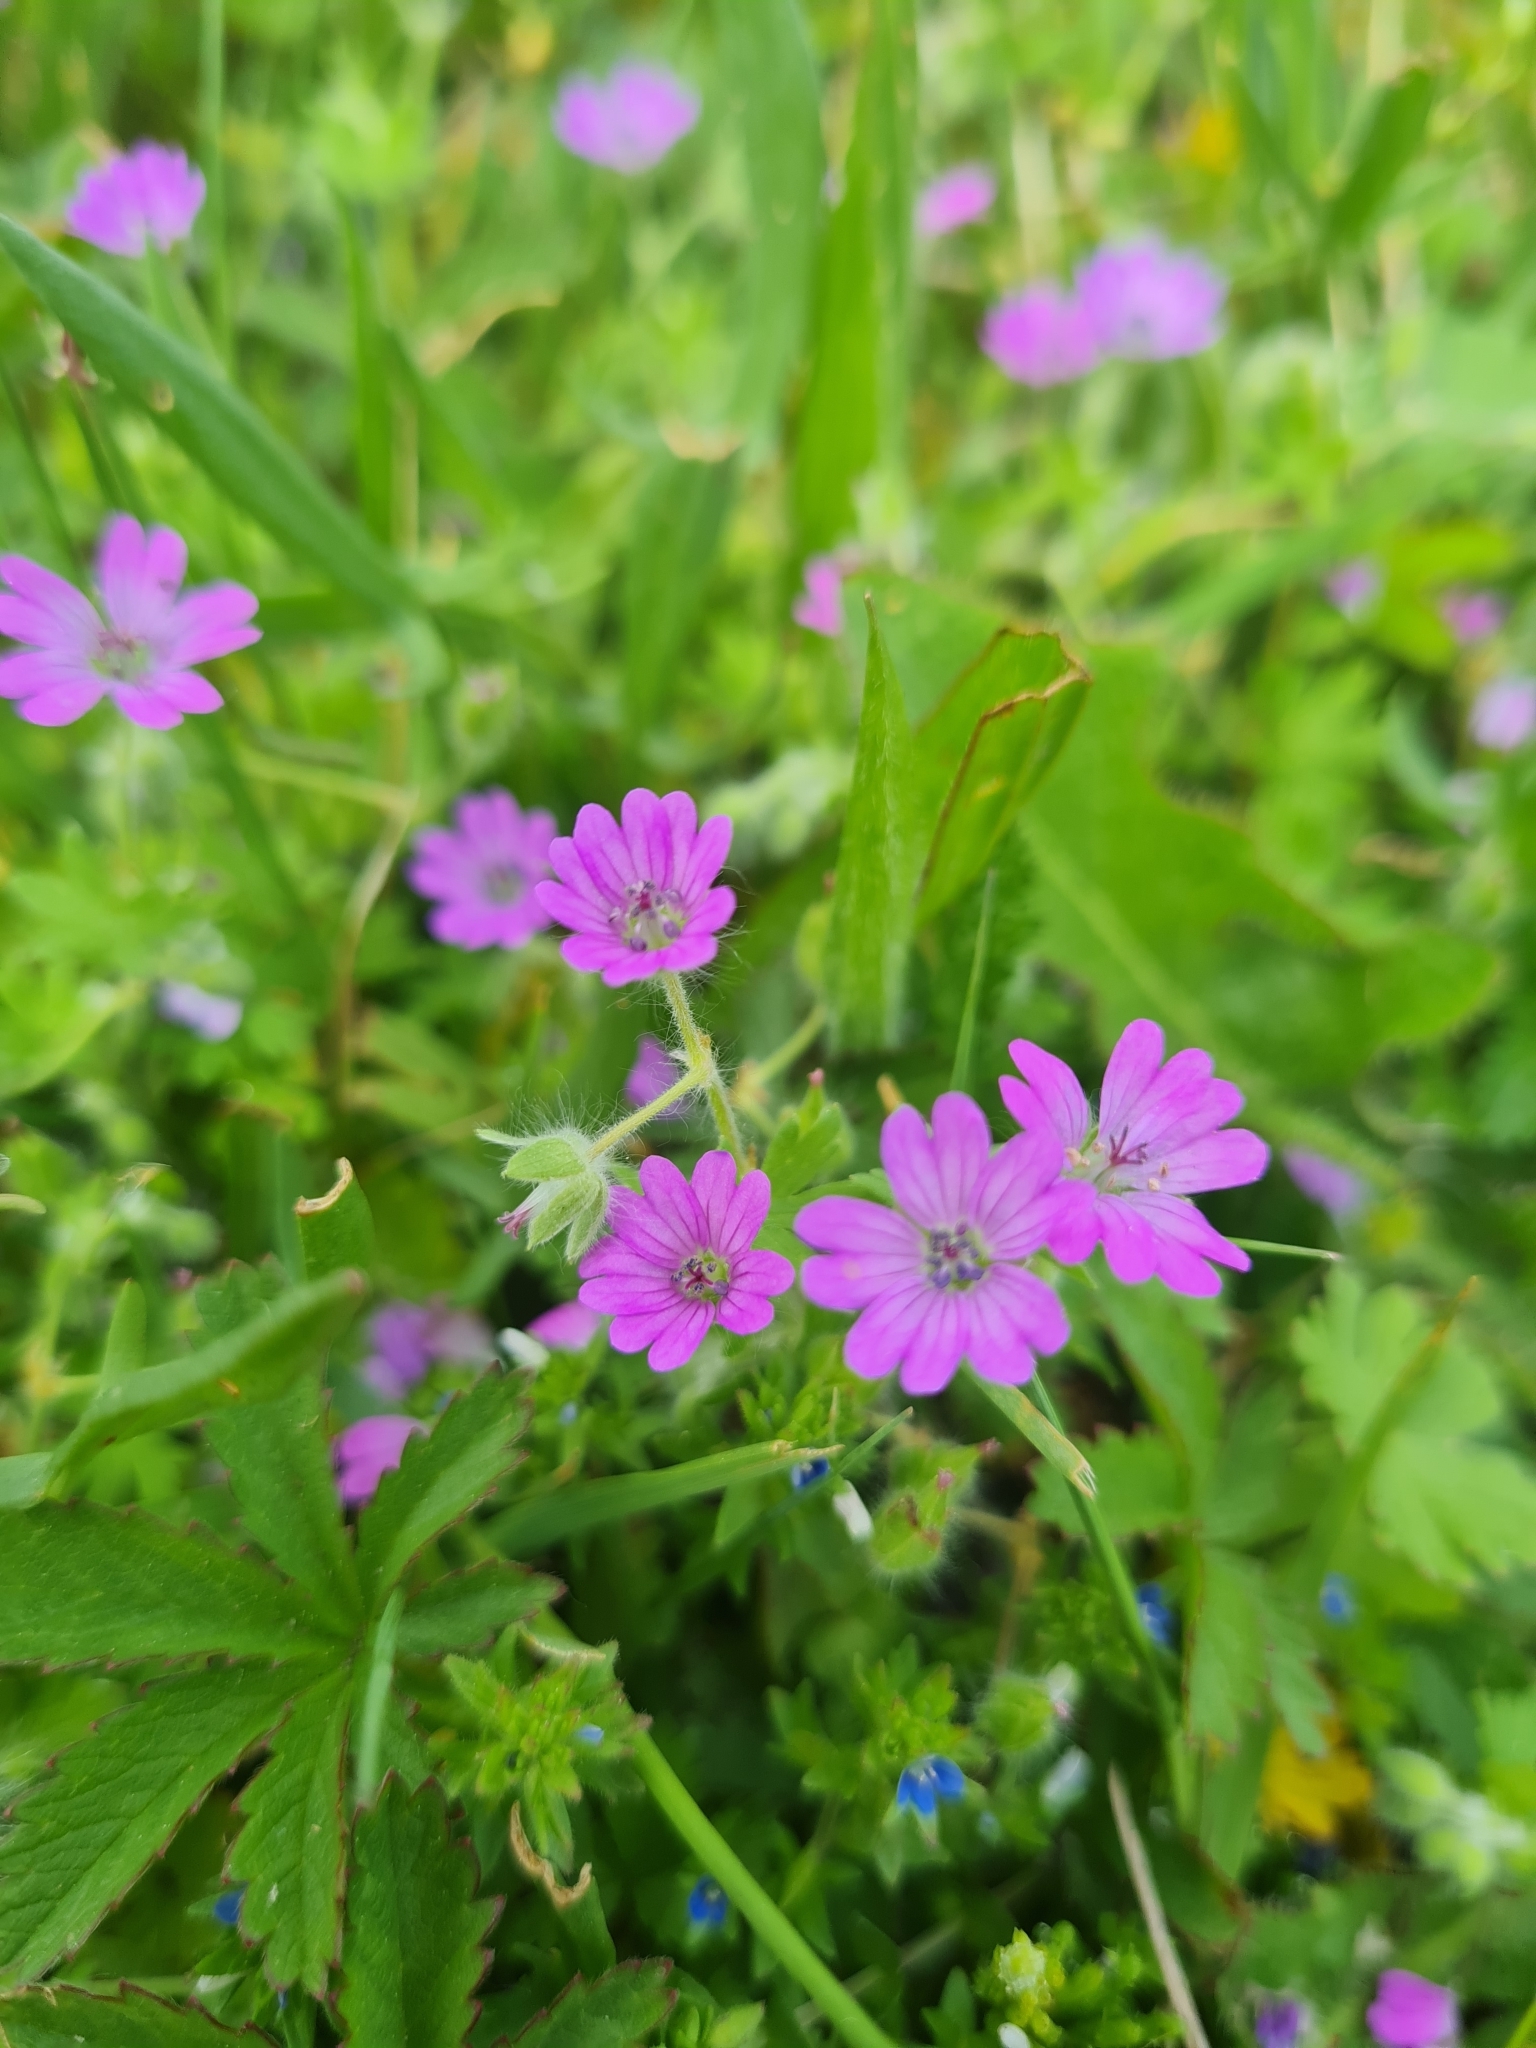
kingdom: Plantae
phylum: Tracheophyta
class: Magnoliopsida
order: Geraniales
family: Geraniaceae
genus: Geranium
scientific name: Geranium molle
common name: Dove's-foot crane's-bill
